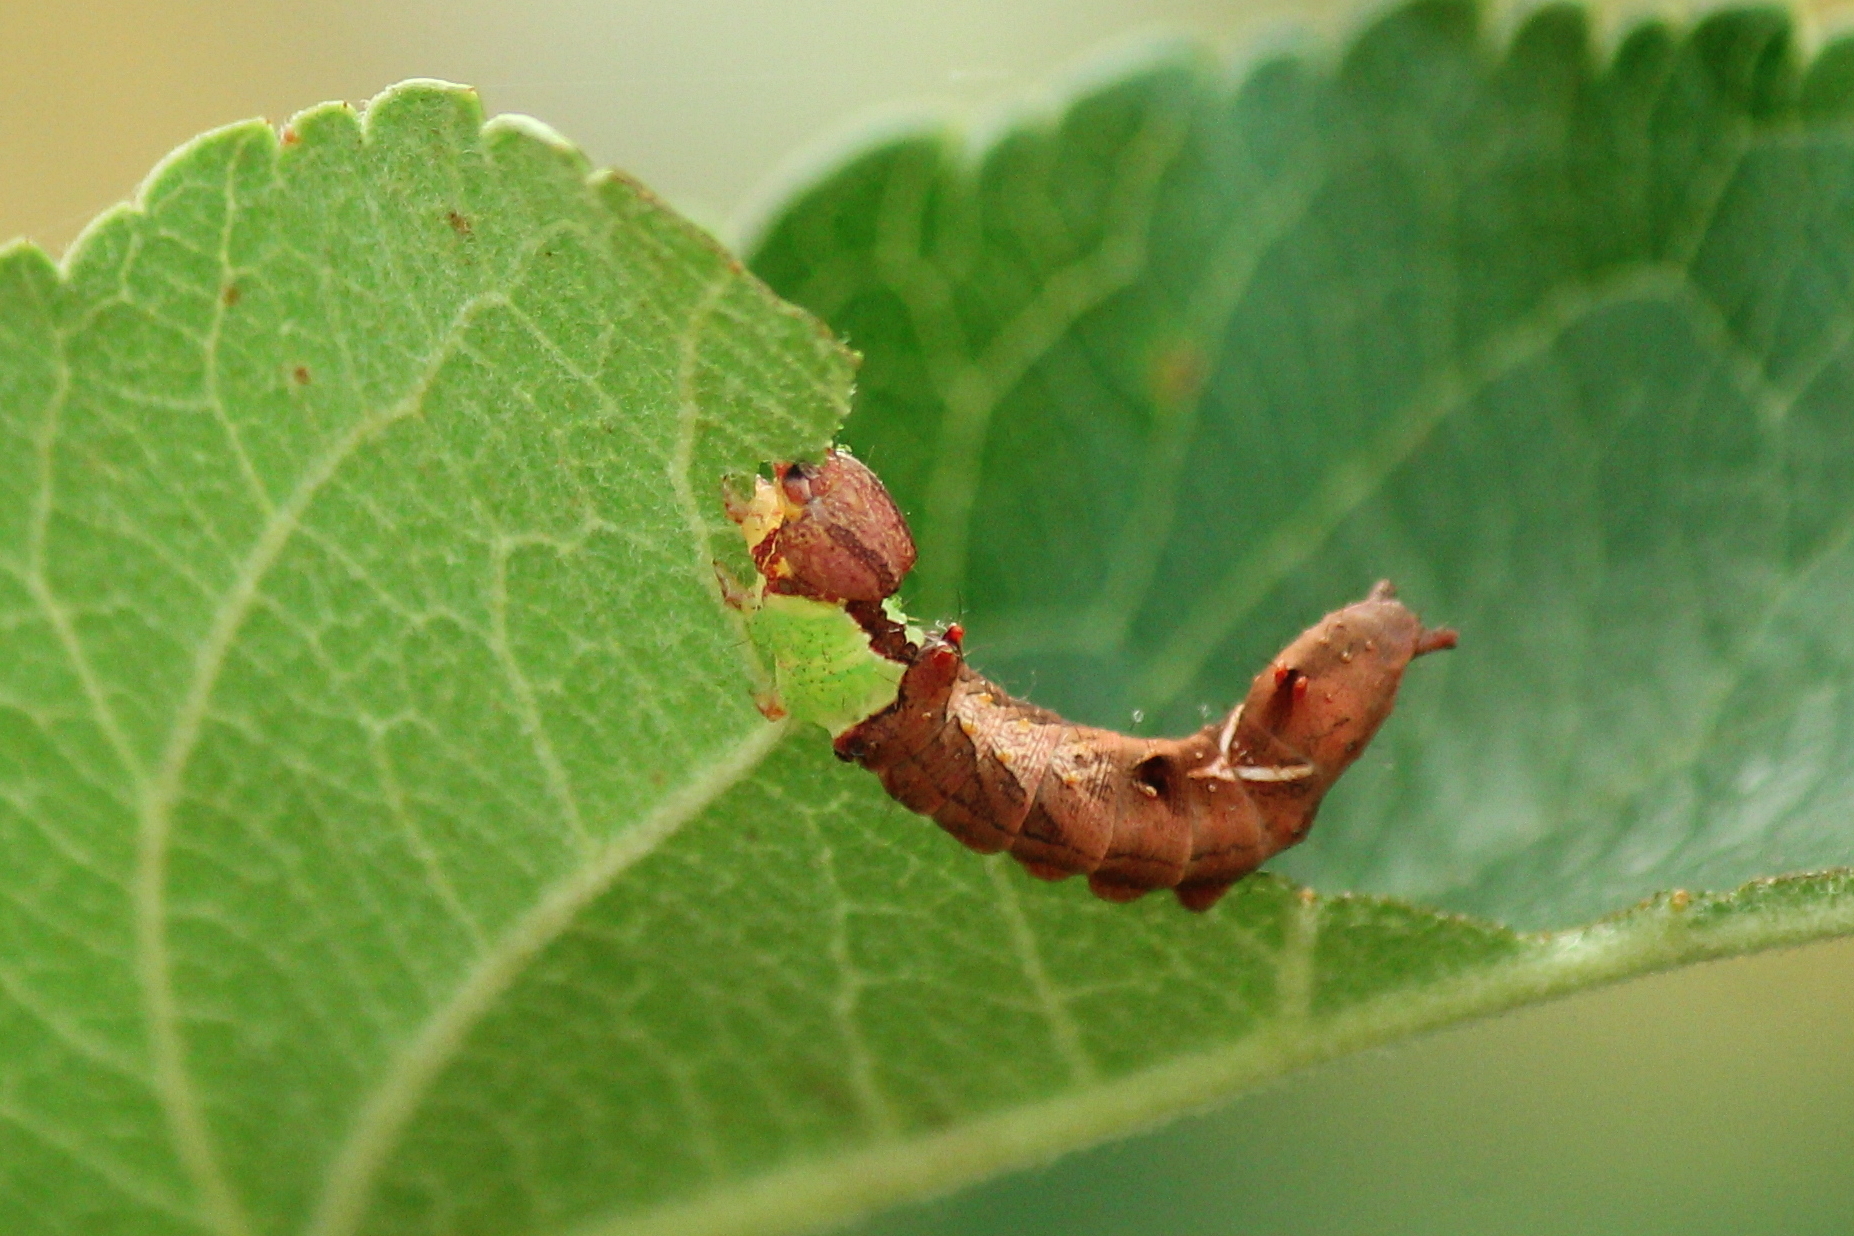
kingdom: Animalia
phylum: Arthropoda
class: Insecta
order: Lepidoptera
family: Notodontidae
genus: Schizura
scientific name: Schizura
